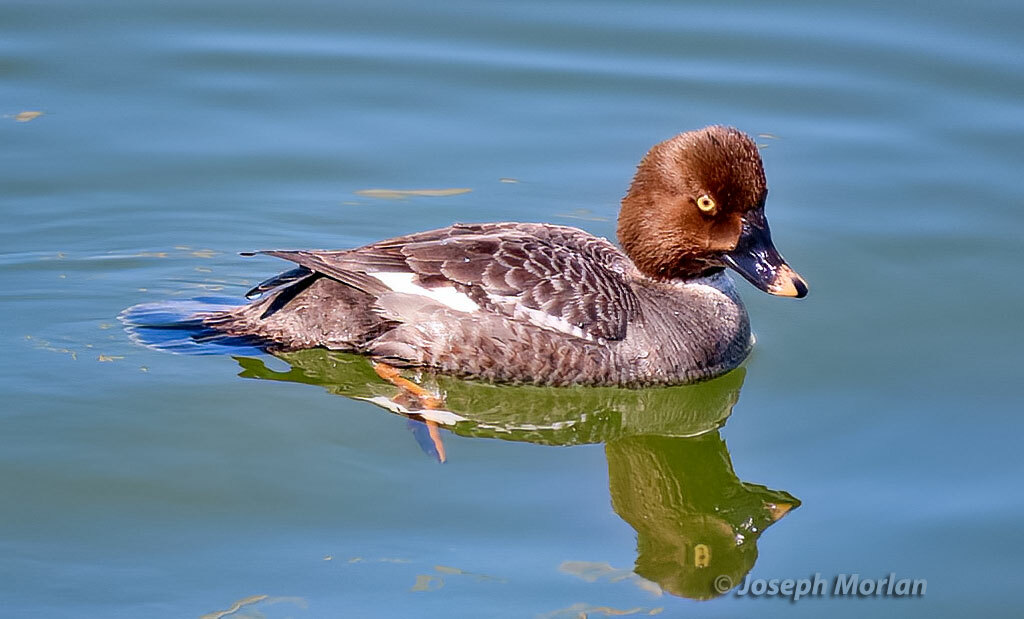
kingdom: Animalia
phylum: Chordata
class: Aves
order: Anseriformes
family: Anatidae
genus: Bucephala
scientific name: Bucephala clangula
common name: Common goldeneye
